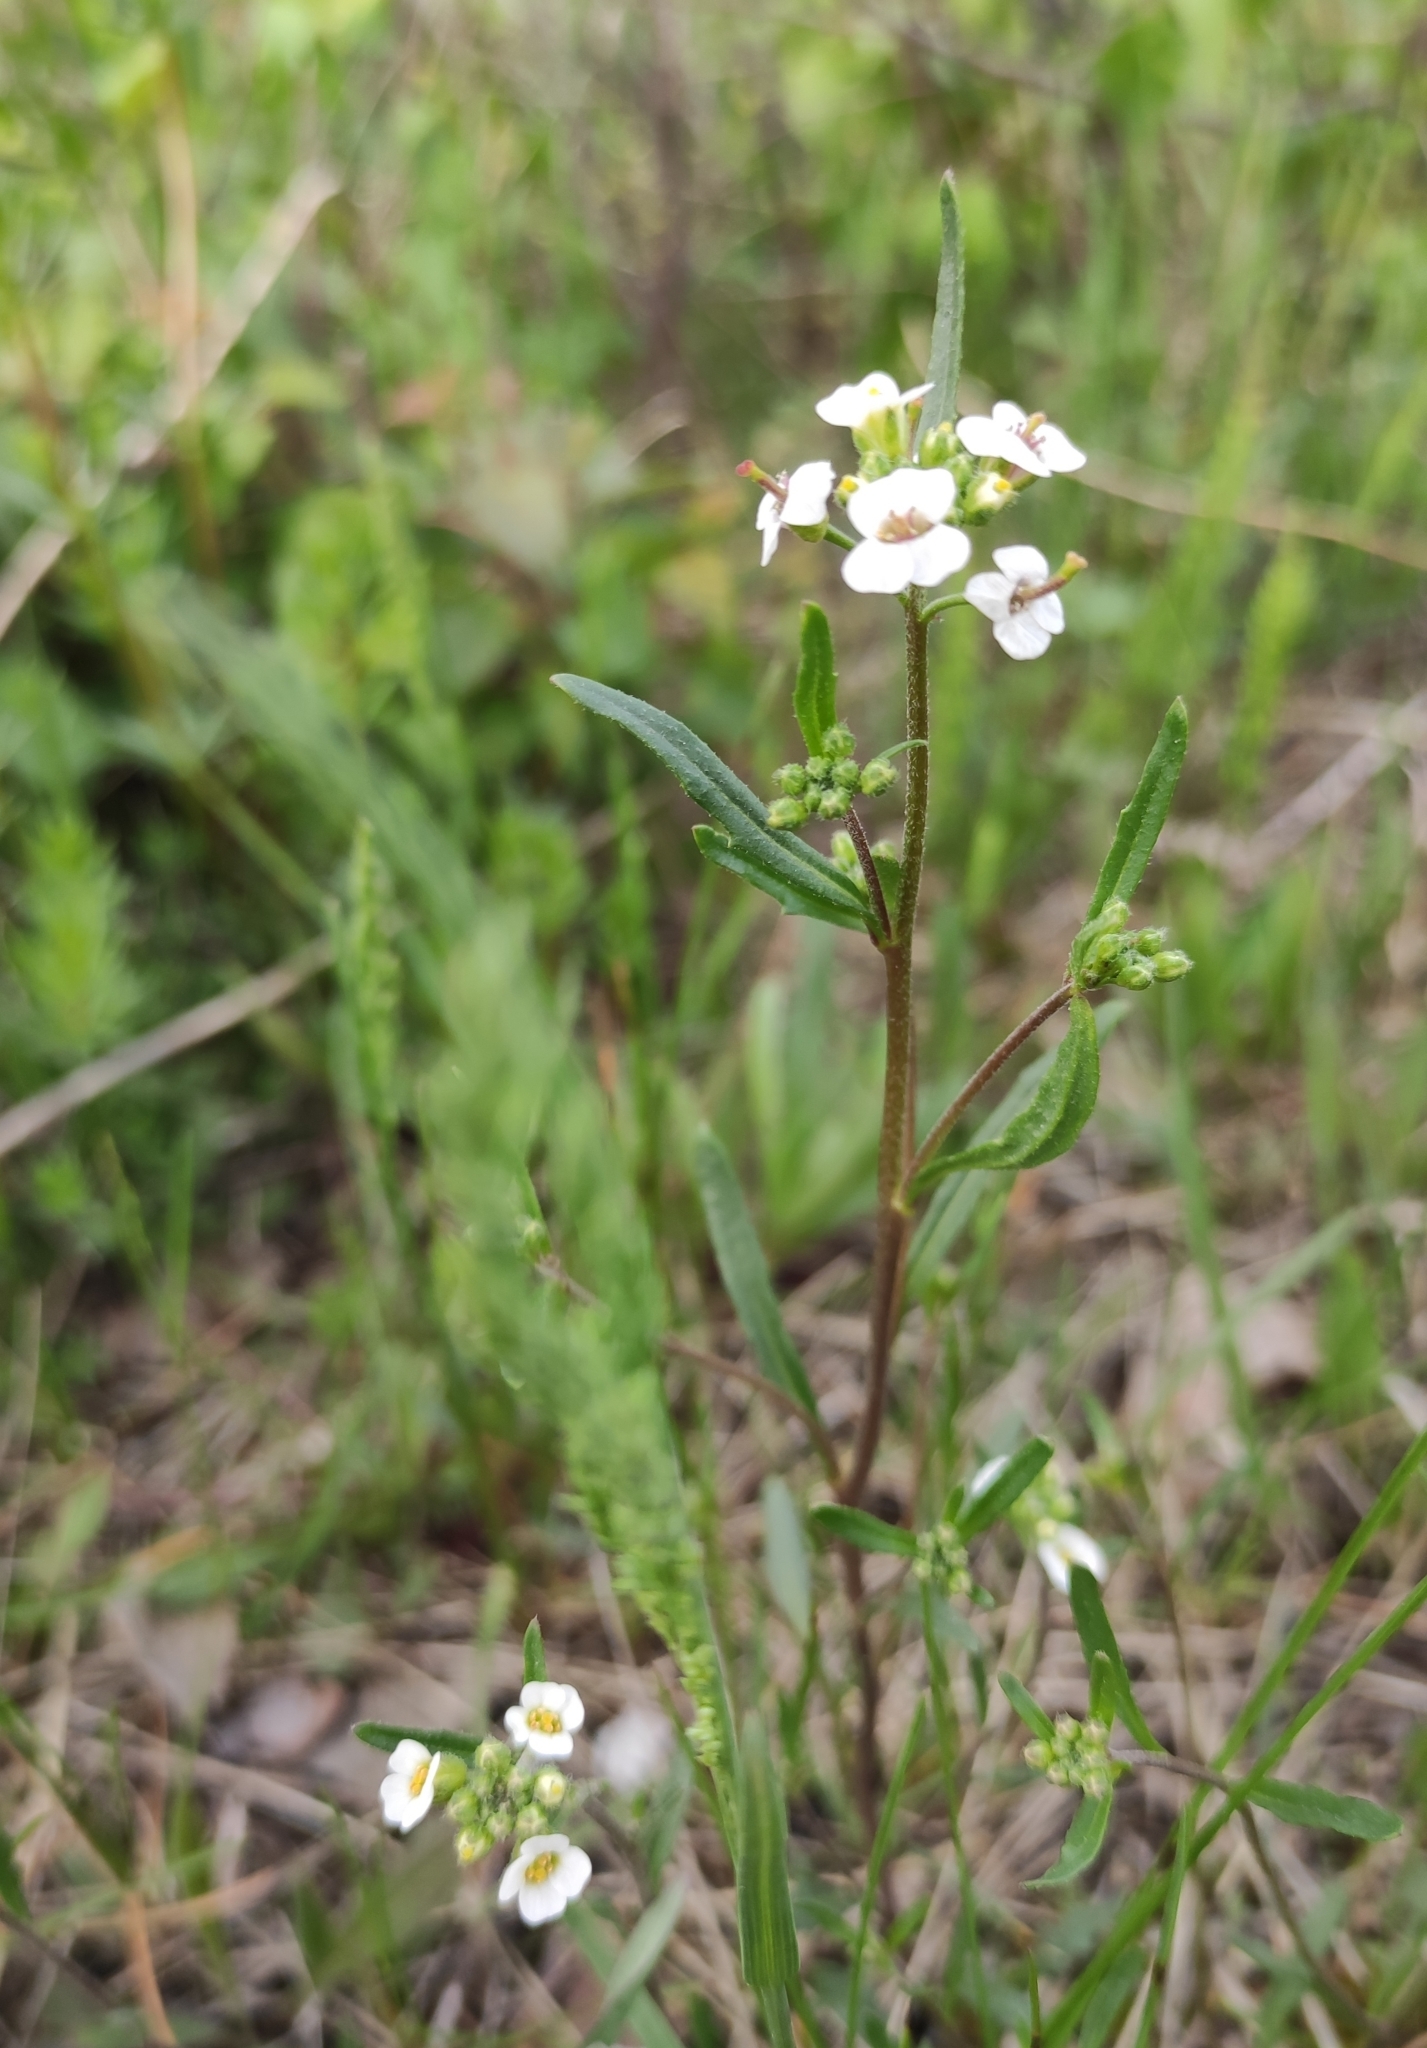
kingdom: Plantae
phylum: Tracheophyta
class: Magnoliopsida
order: Brassicales
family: Brassicaceae
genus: Braya
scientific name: Braya humilis
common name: Alpine northern rockcress
